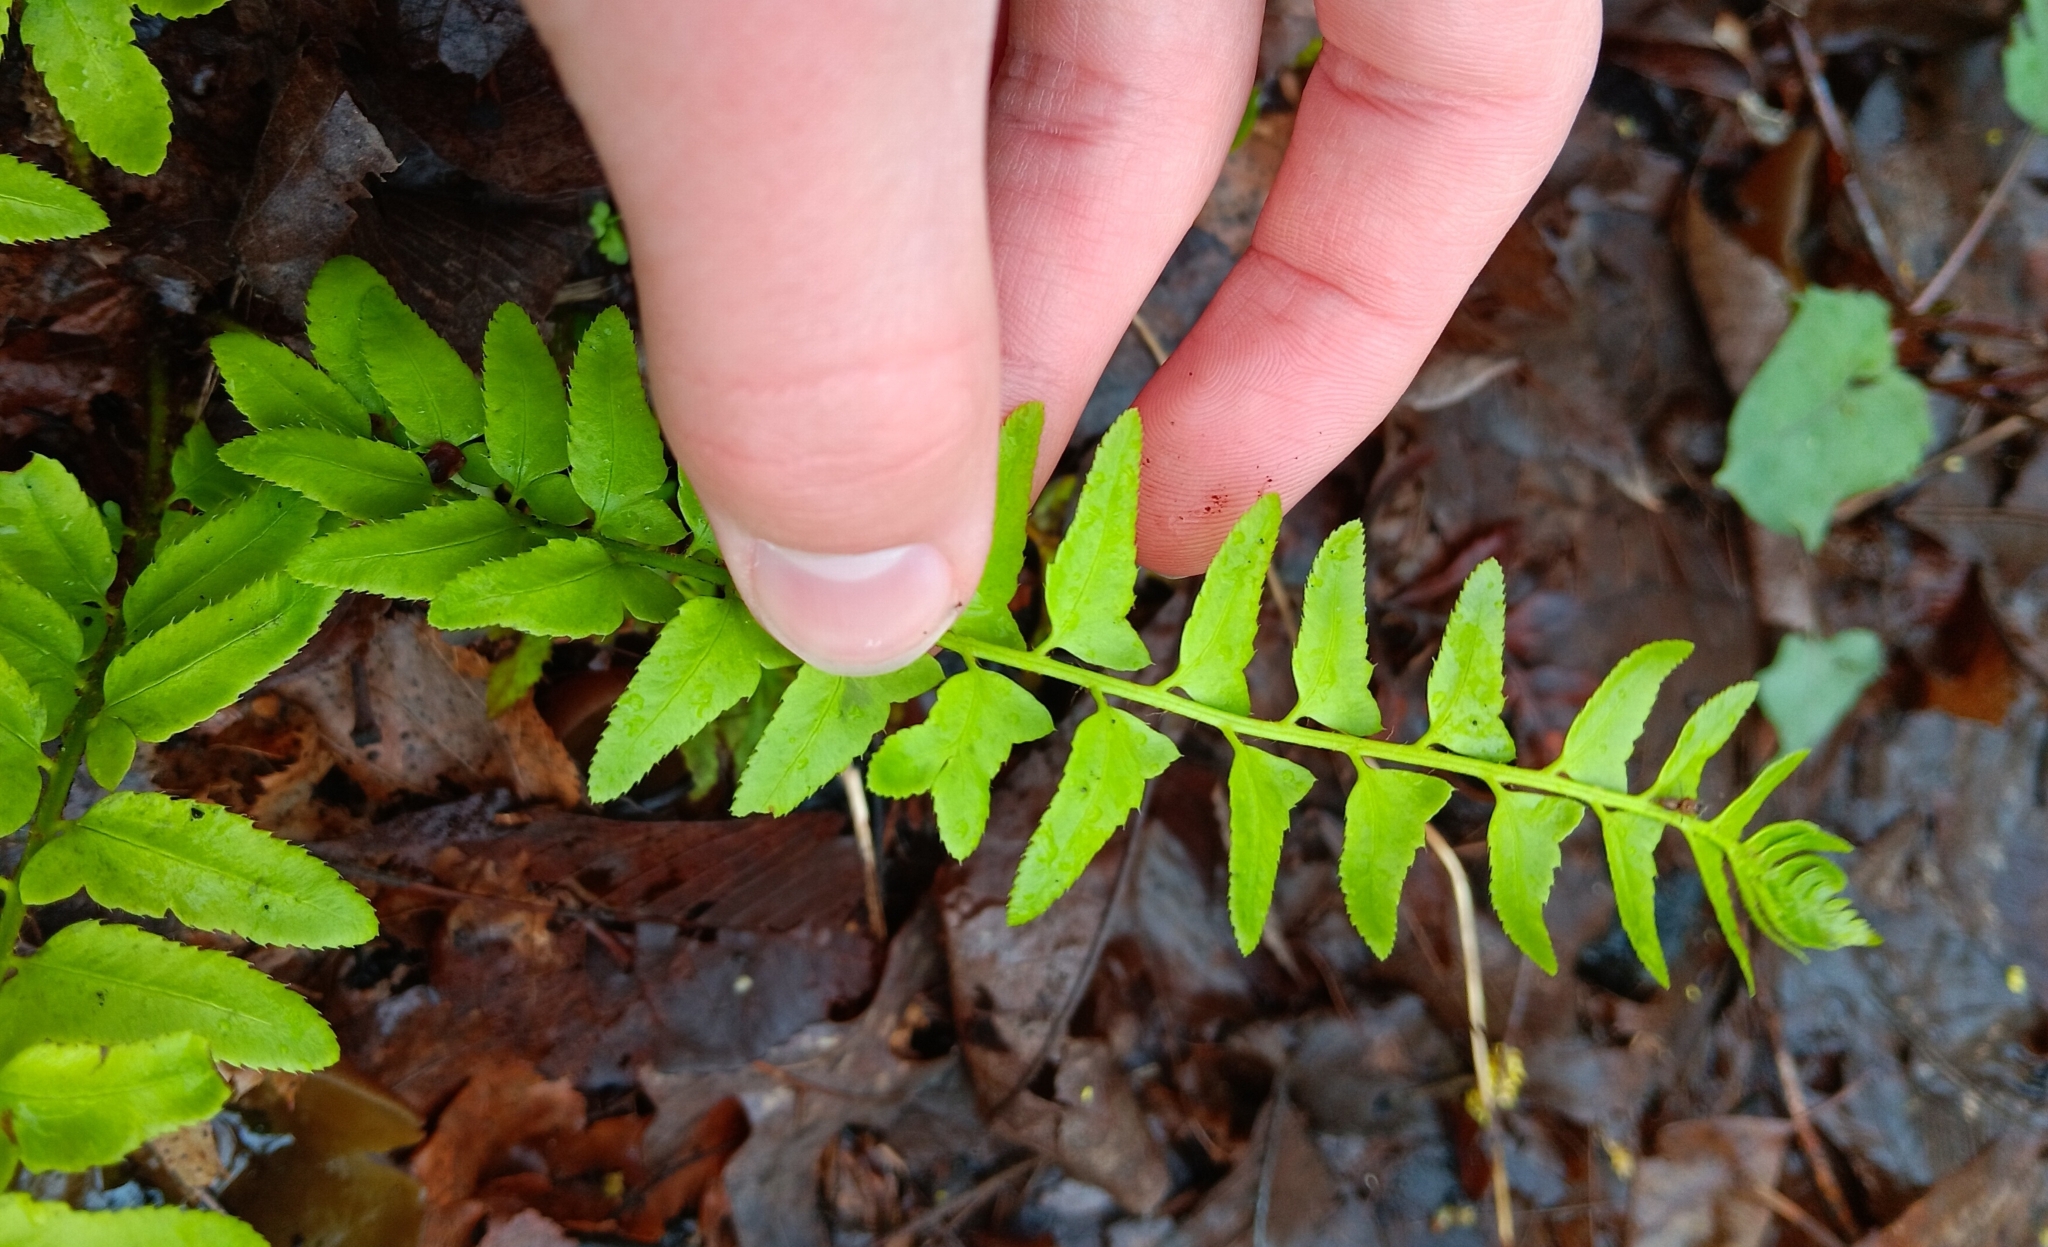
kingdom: Plantae
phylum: Tracheophyta
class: Polypodiopsida
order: Polypodiales
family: Dryopteridaceae
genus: Polystichum
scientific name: Polystichum acrostichoides
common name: Christmas fern
